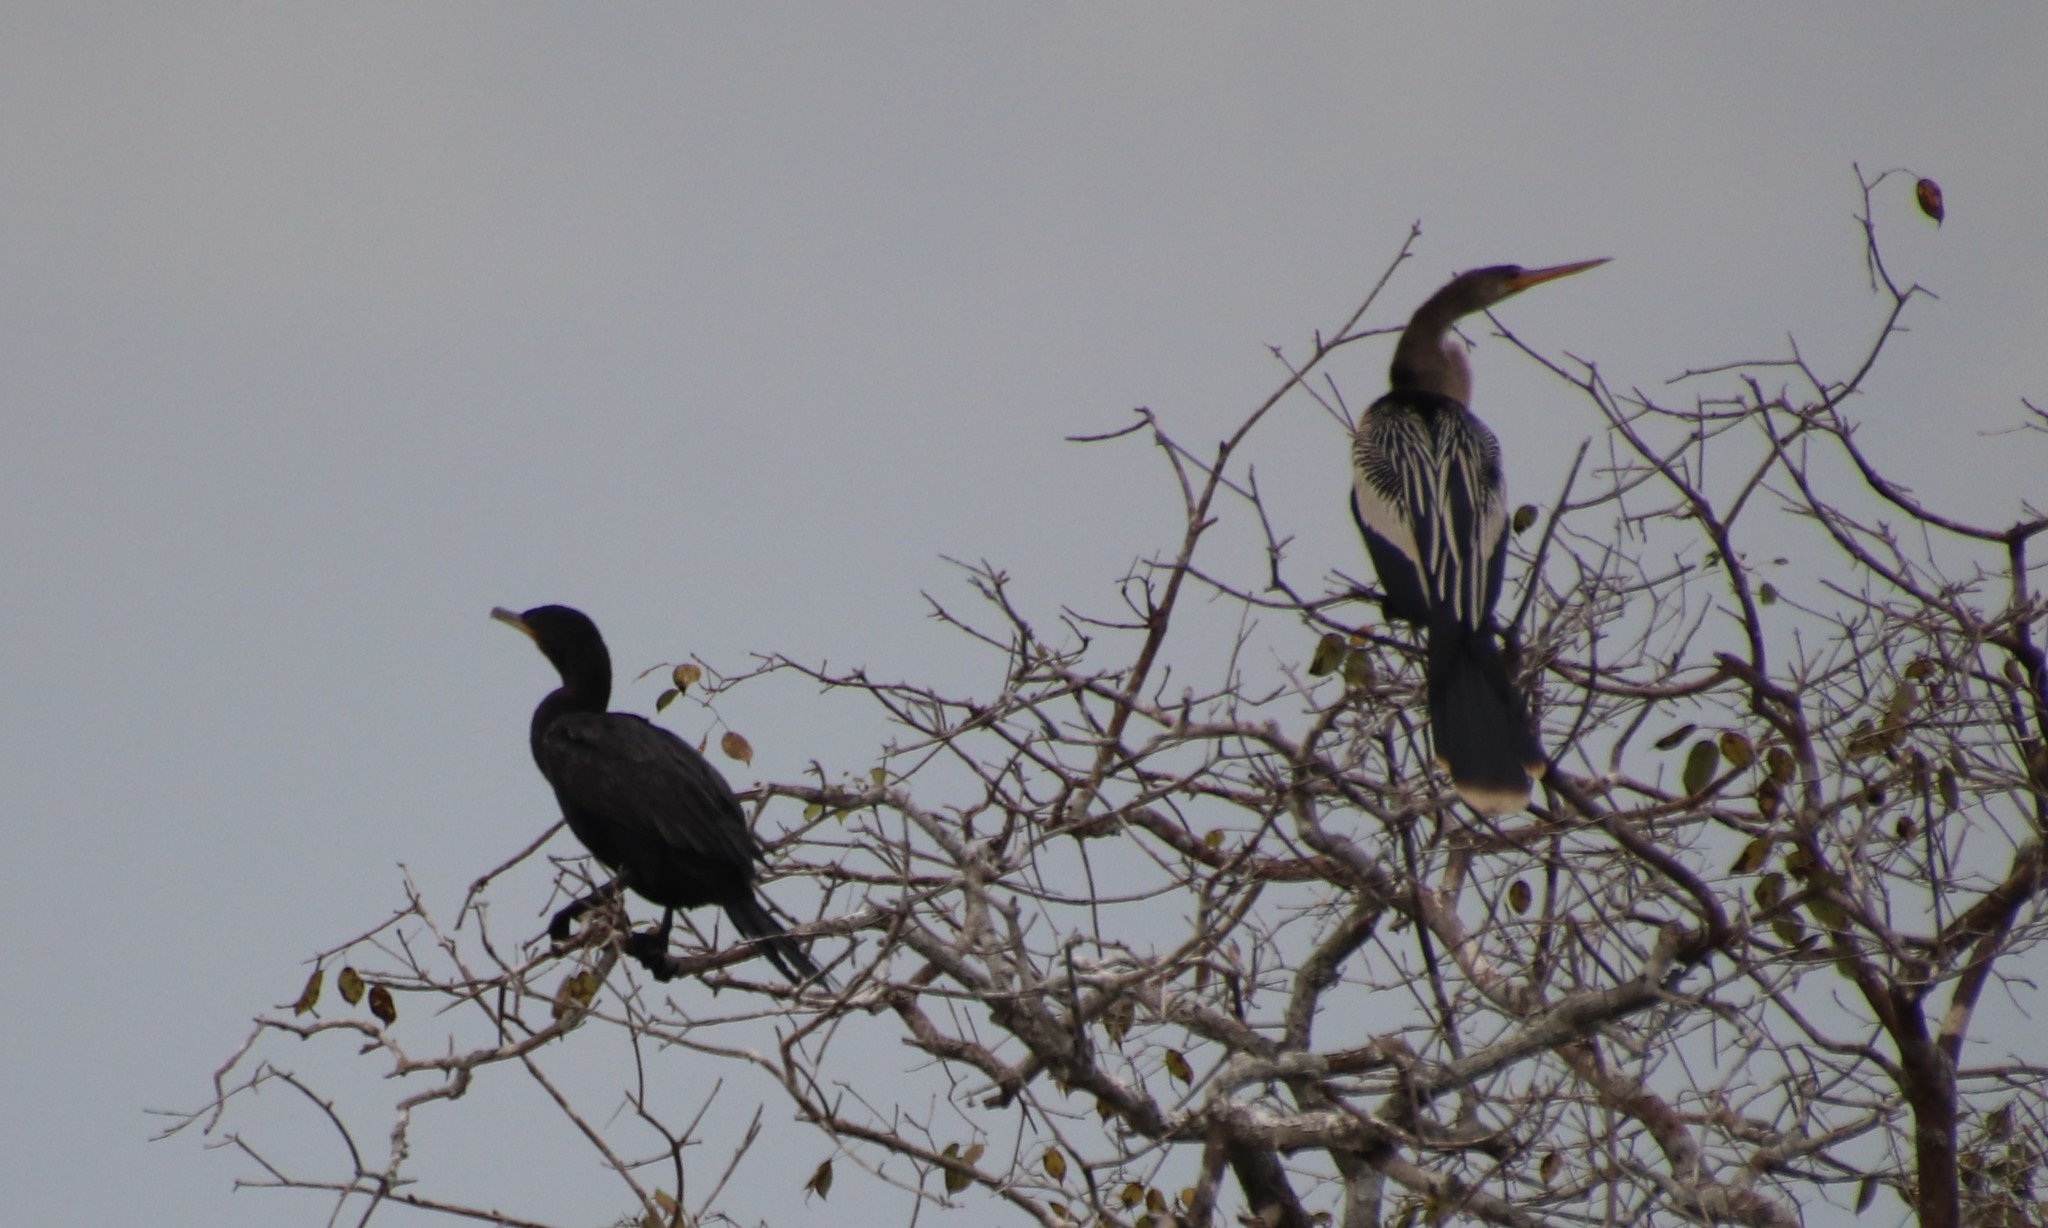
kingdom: Animalia
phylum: Chordata
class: Aves
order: Suliformes
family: Anhingidae
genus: Anhinga
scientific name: Anhinga anhinga
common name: Anhinga
